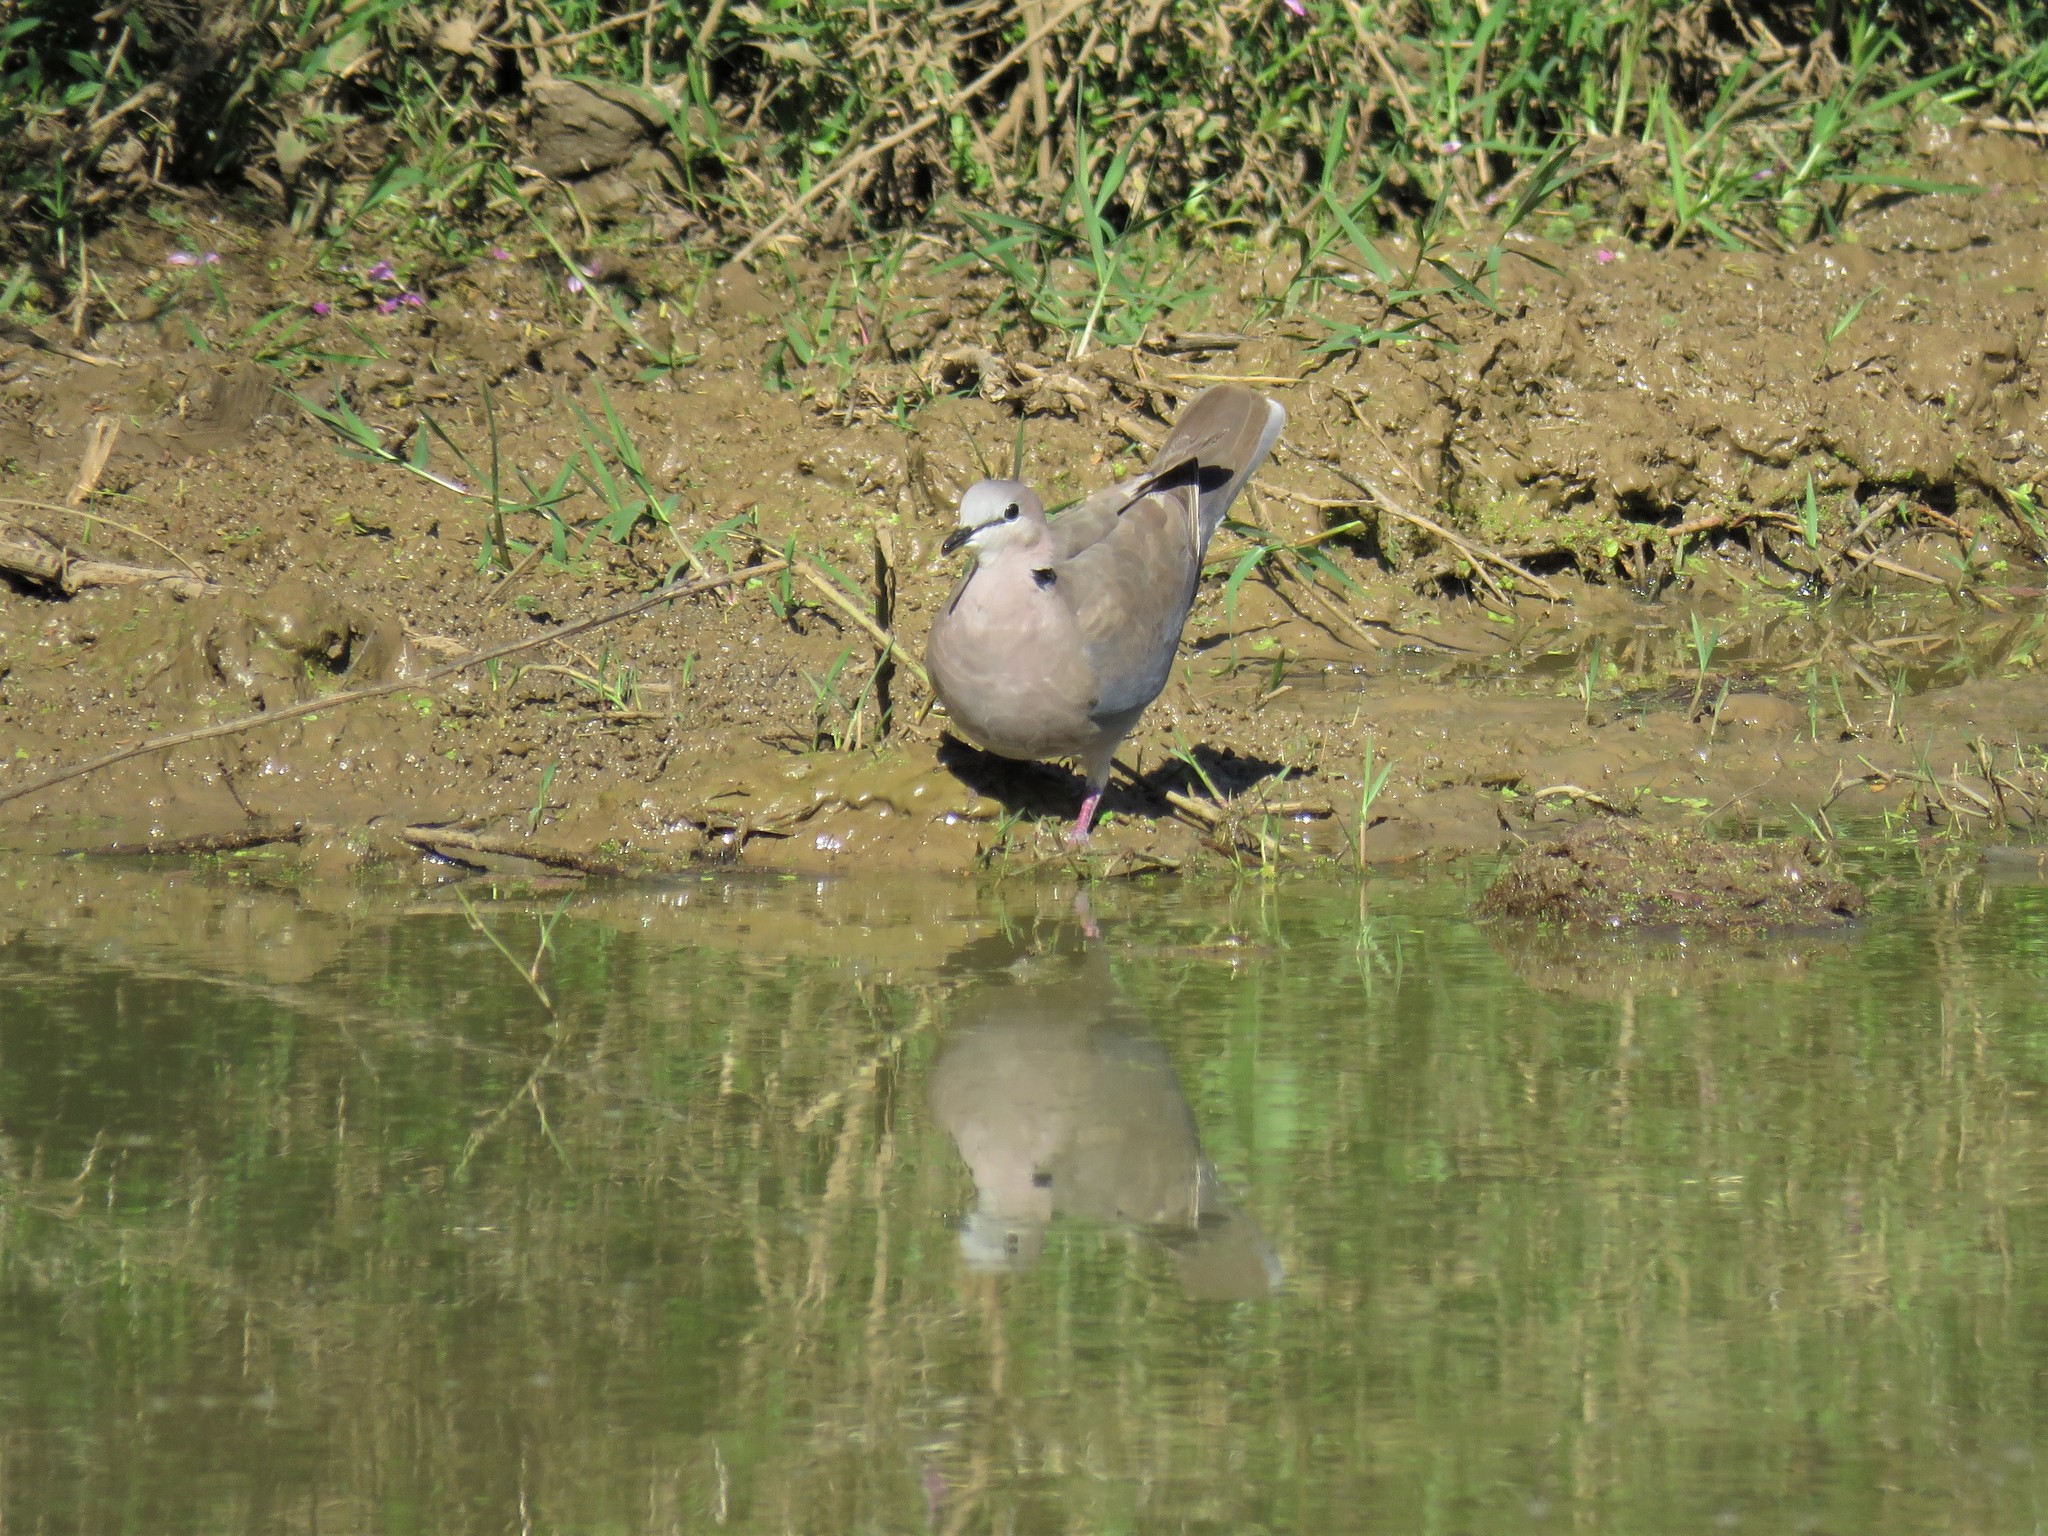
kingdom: Animalia
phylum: Chordata
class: Aves
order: Columbiformes
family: Columbidae
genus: Streptopelia
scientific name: Streptopelia capicola
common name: Ring-necked dove
